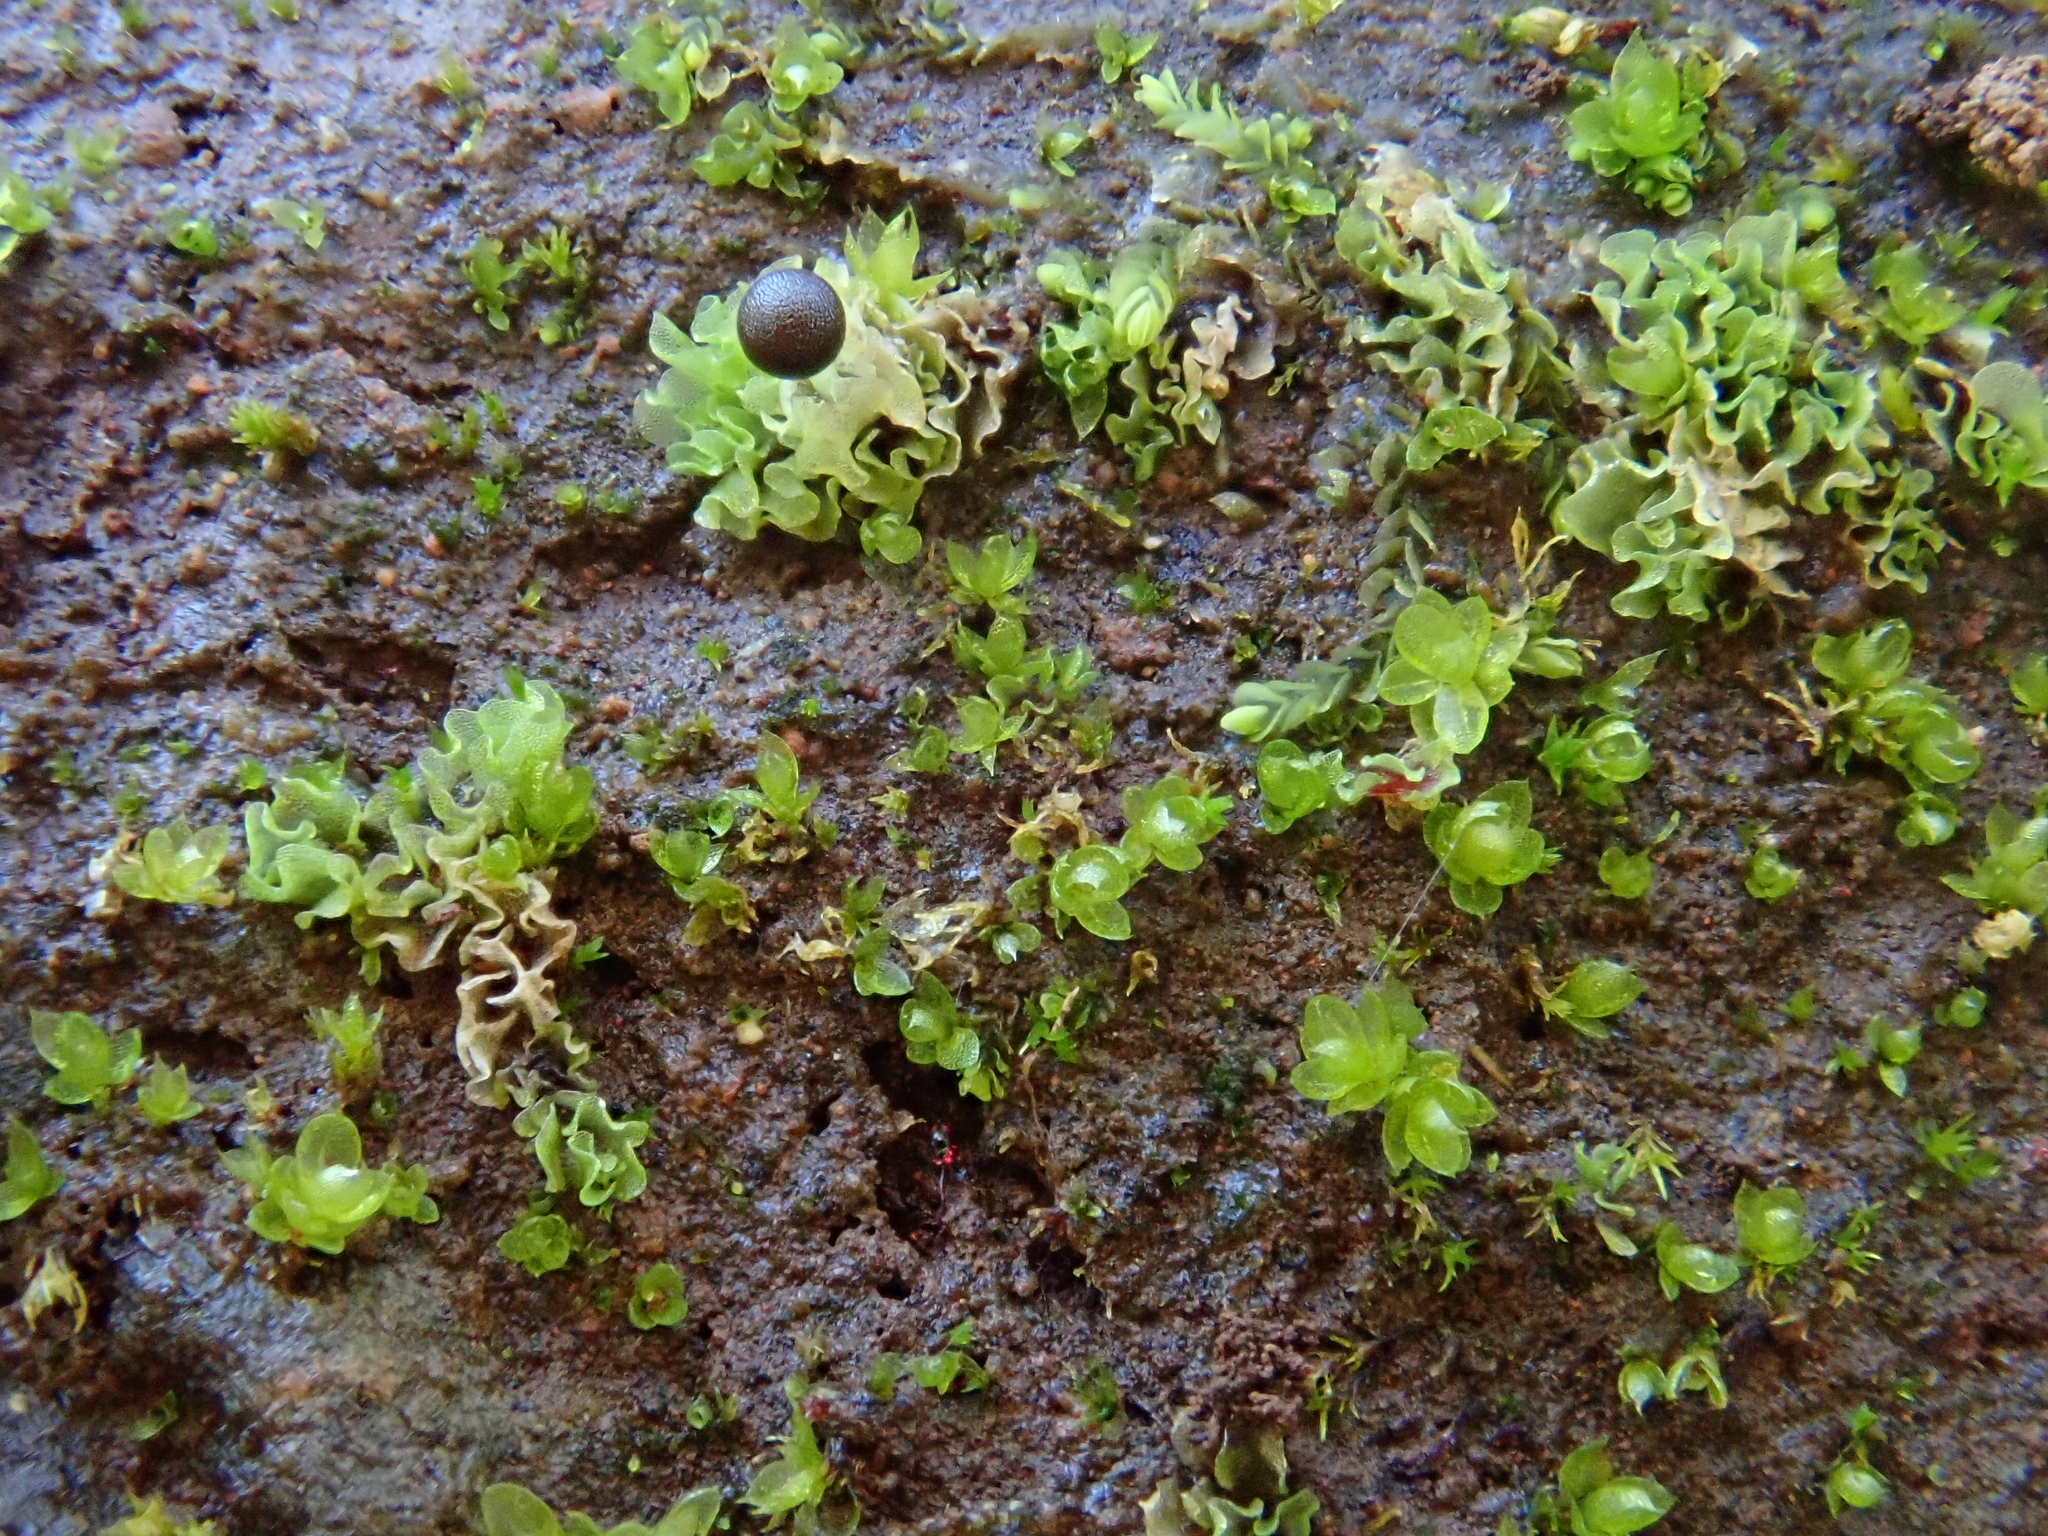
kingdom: Plantae
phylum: Marchantiophyta
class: Jungermanniopsida
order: Fossombroniales
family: Fossombroniaceae
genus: Fossombronia
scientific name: Fossombronia pusilla
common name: Common frillwort
